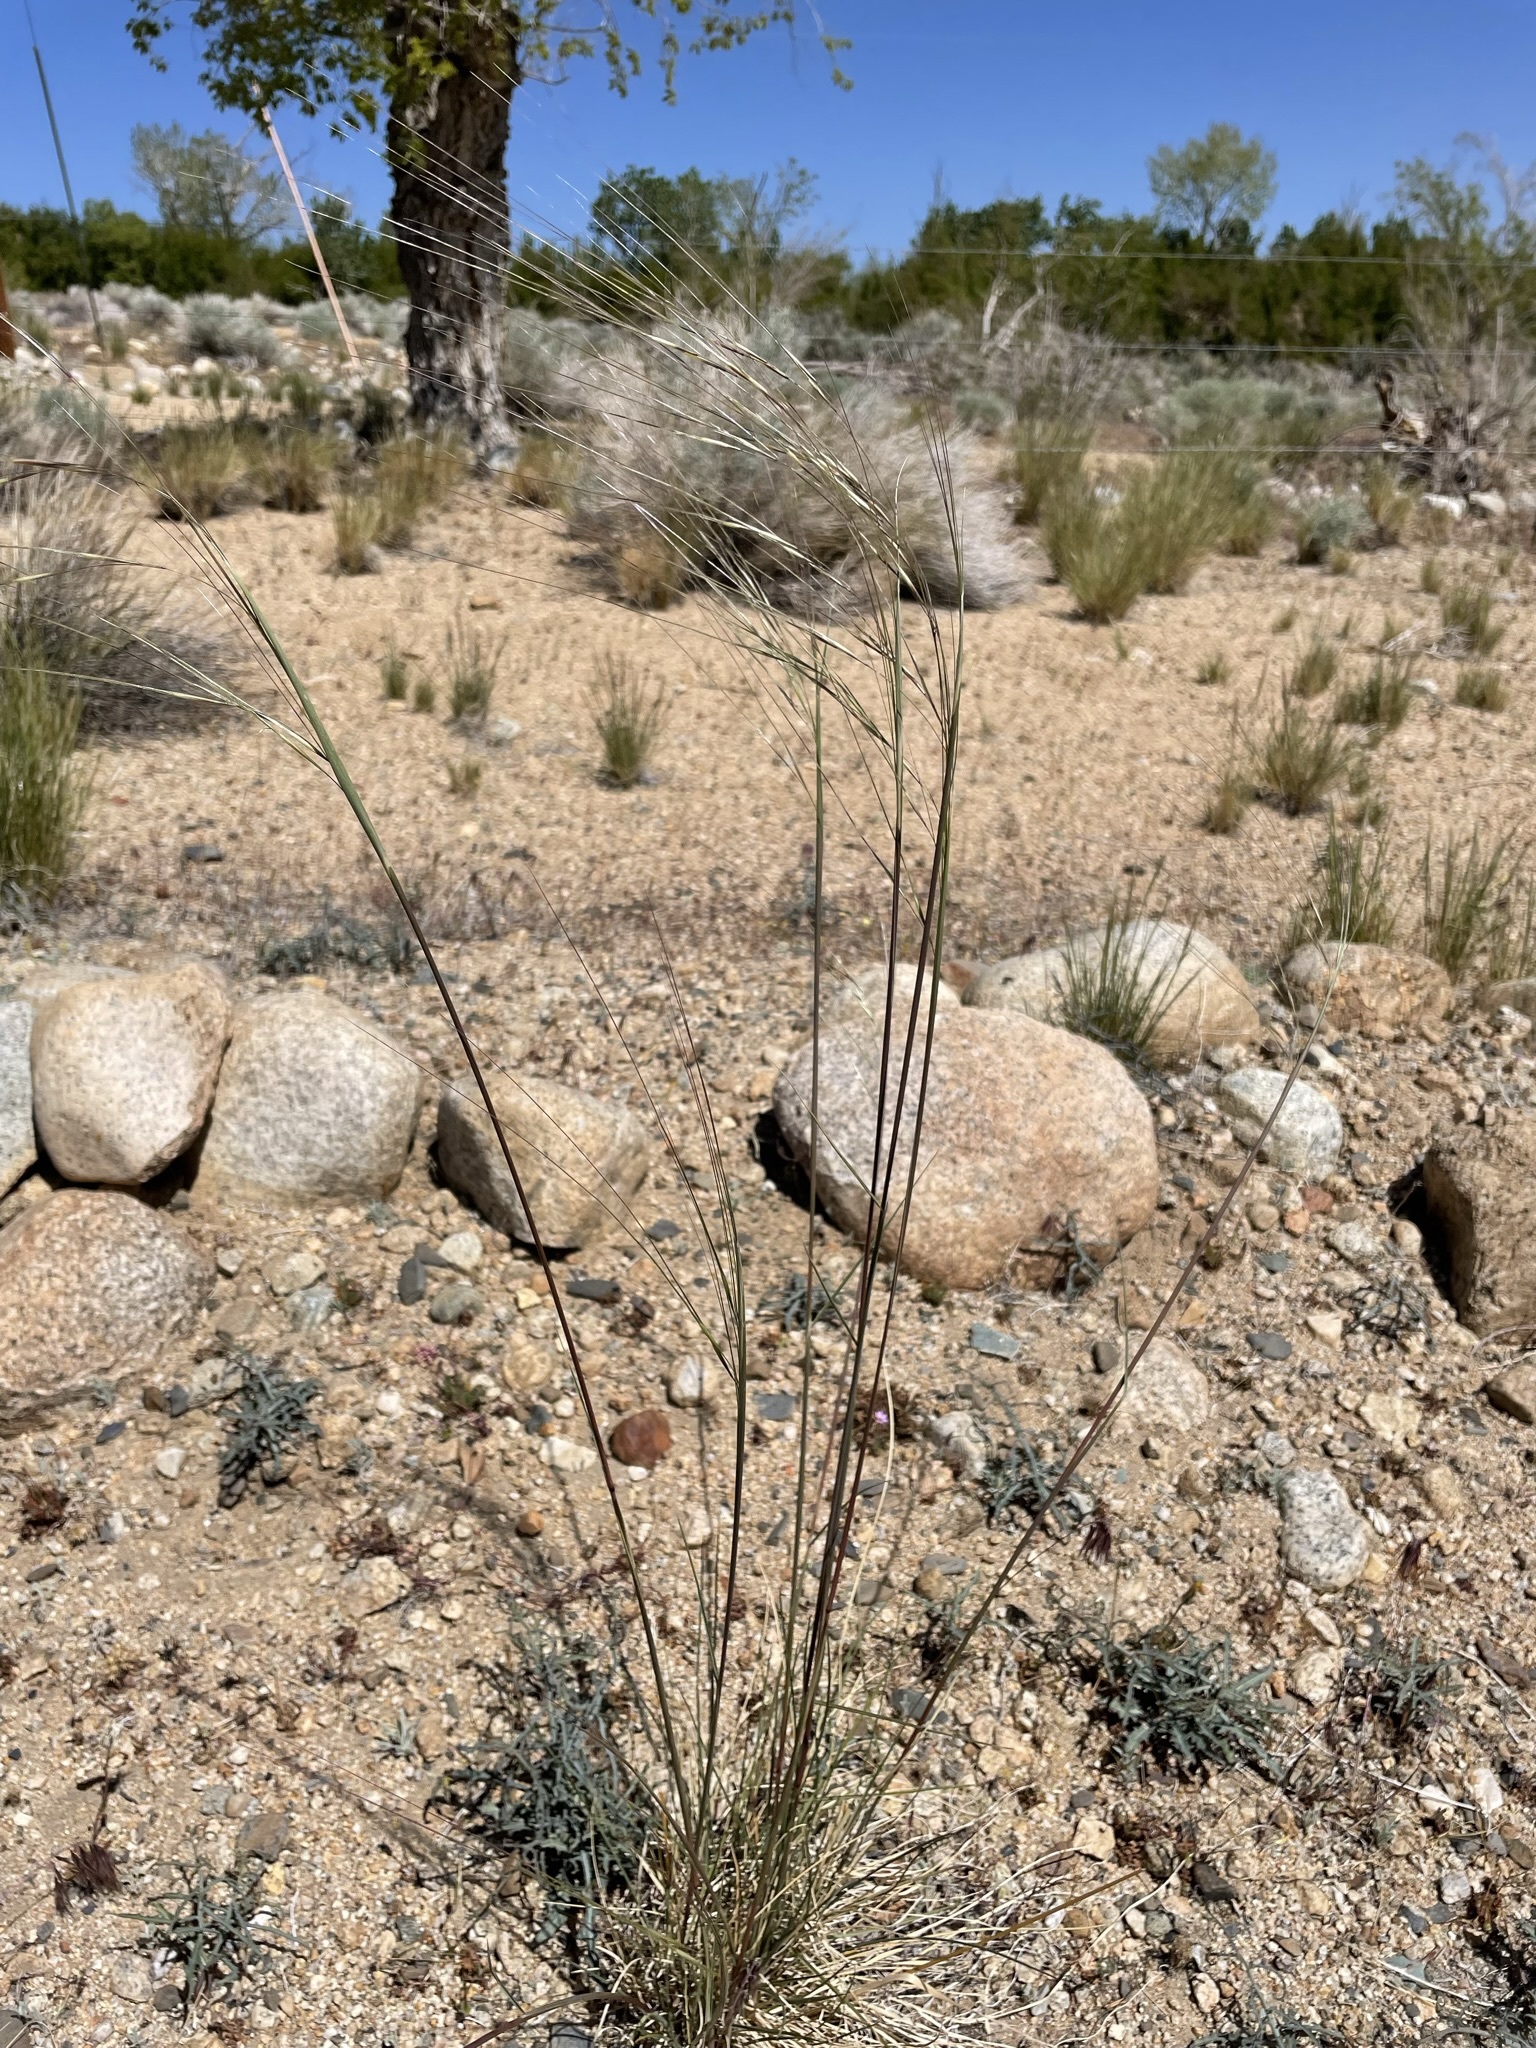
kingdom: Plantae
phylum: Tracheophyta
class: Liliopsida
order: Poales
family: Poaceae
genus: Hesperostipa
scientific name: Hesperostipa comata
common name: Needle-and-thread grass
